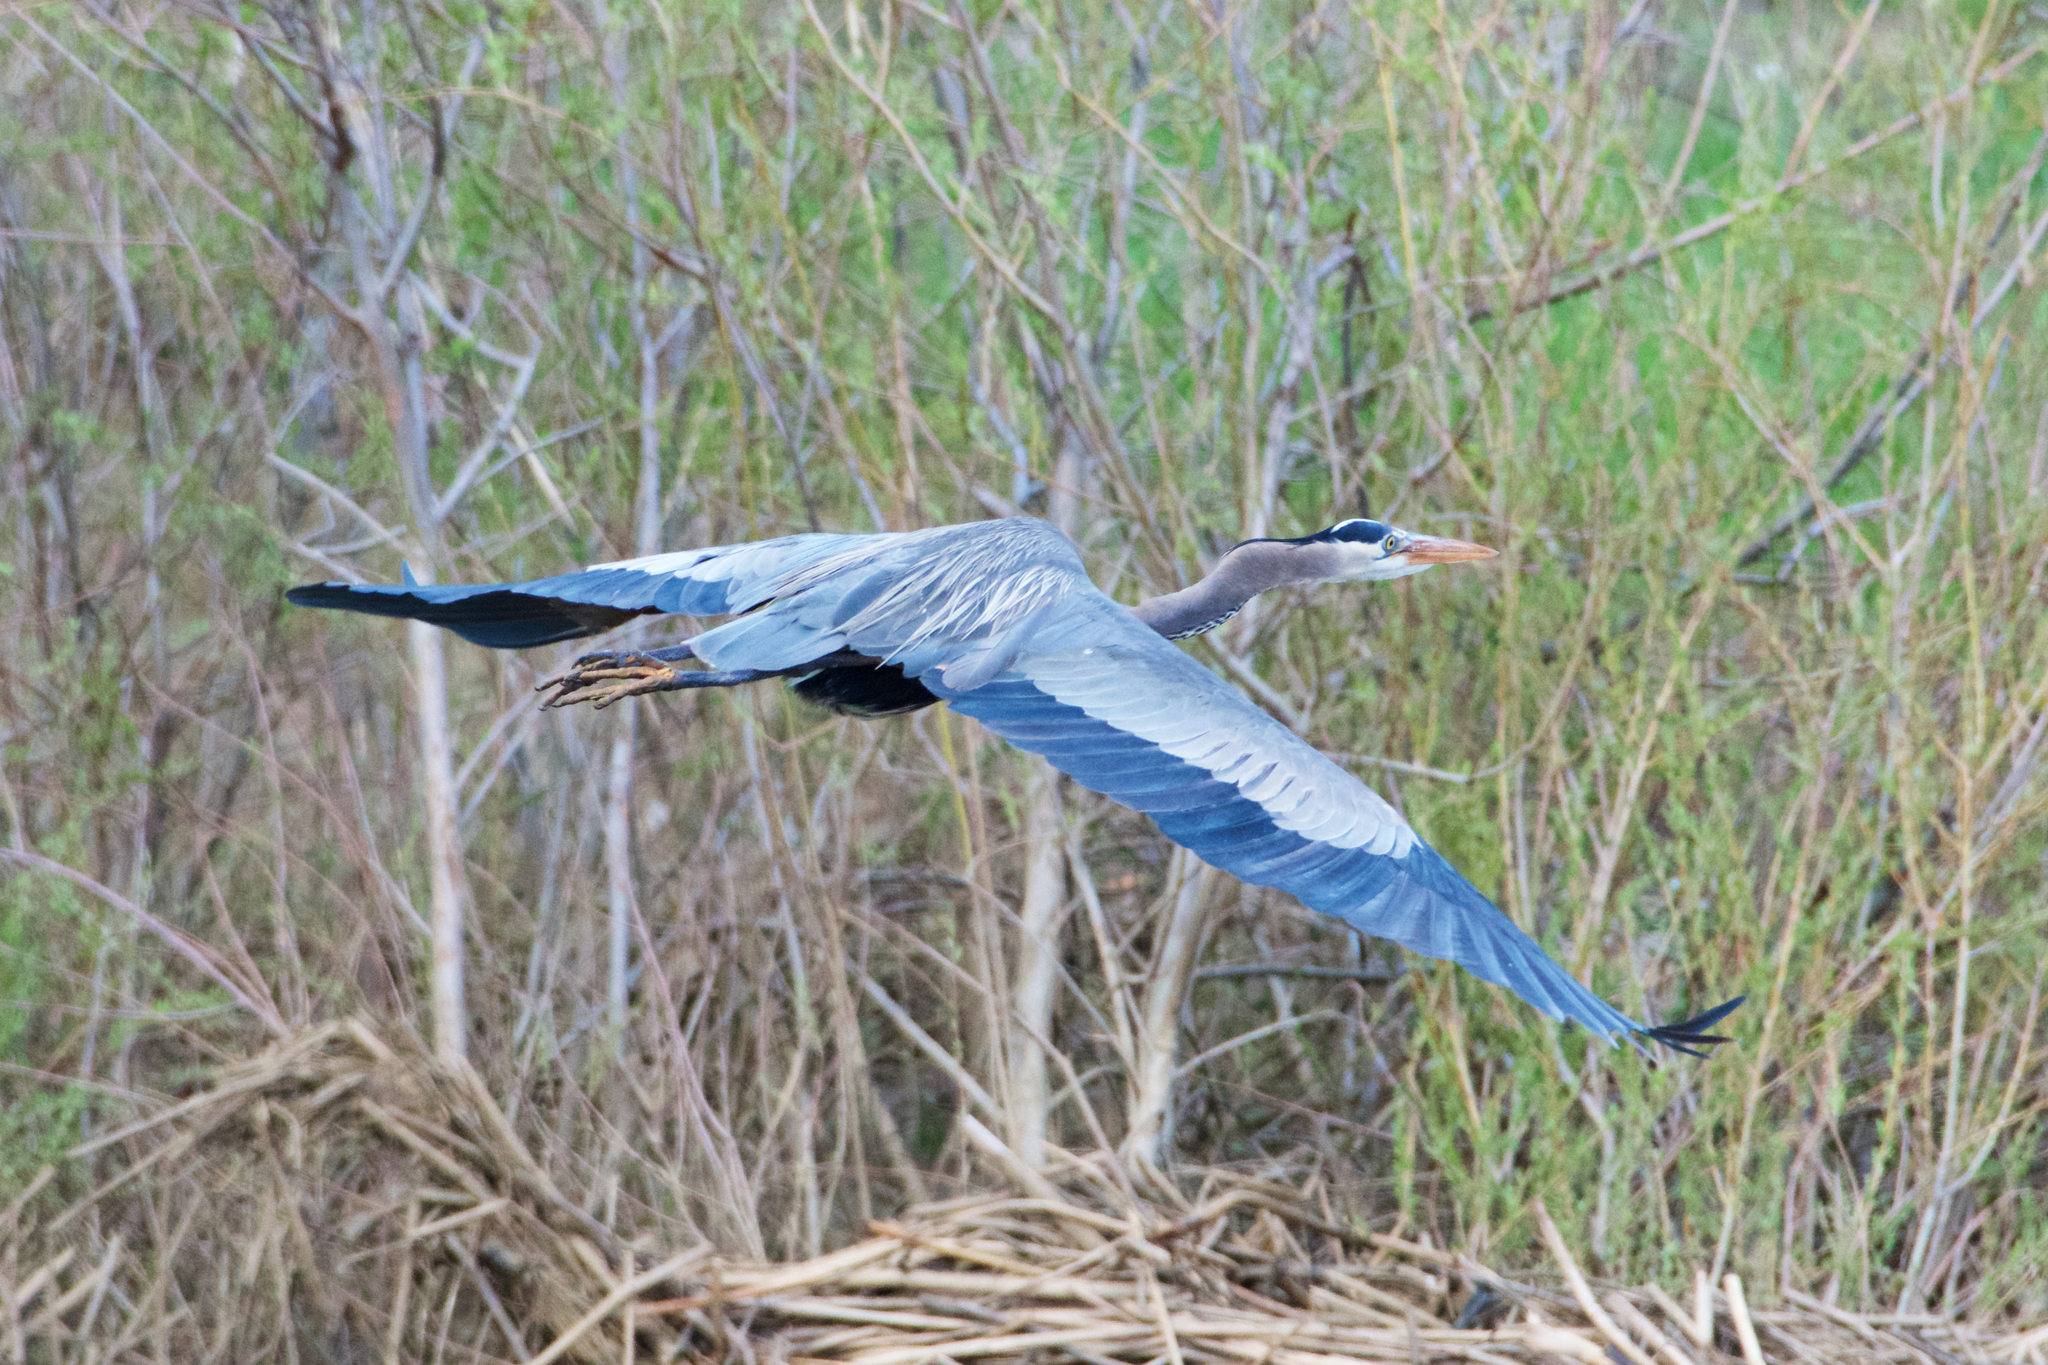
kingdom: Animalia
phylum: Chordata
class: Aves
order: Pelecaniformes
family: Ardeidae
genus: Ardea
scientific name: Ardea herodias
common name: Great blue heron
